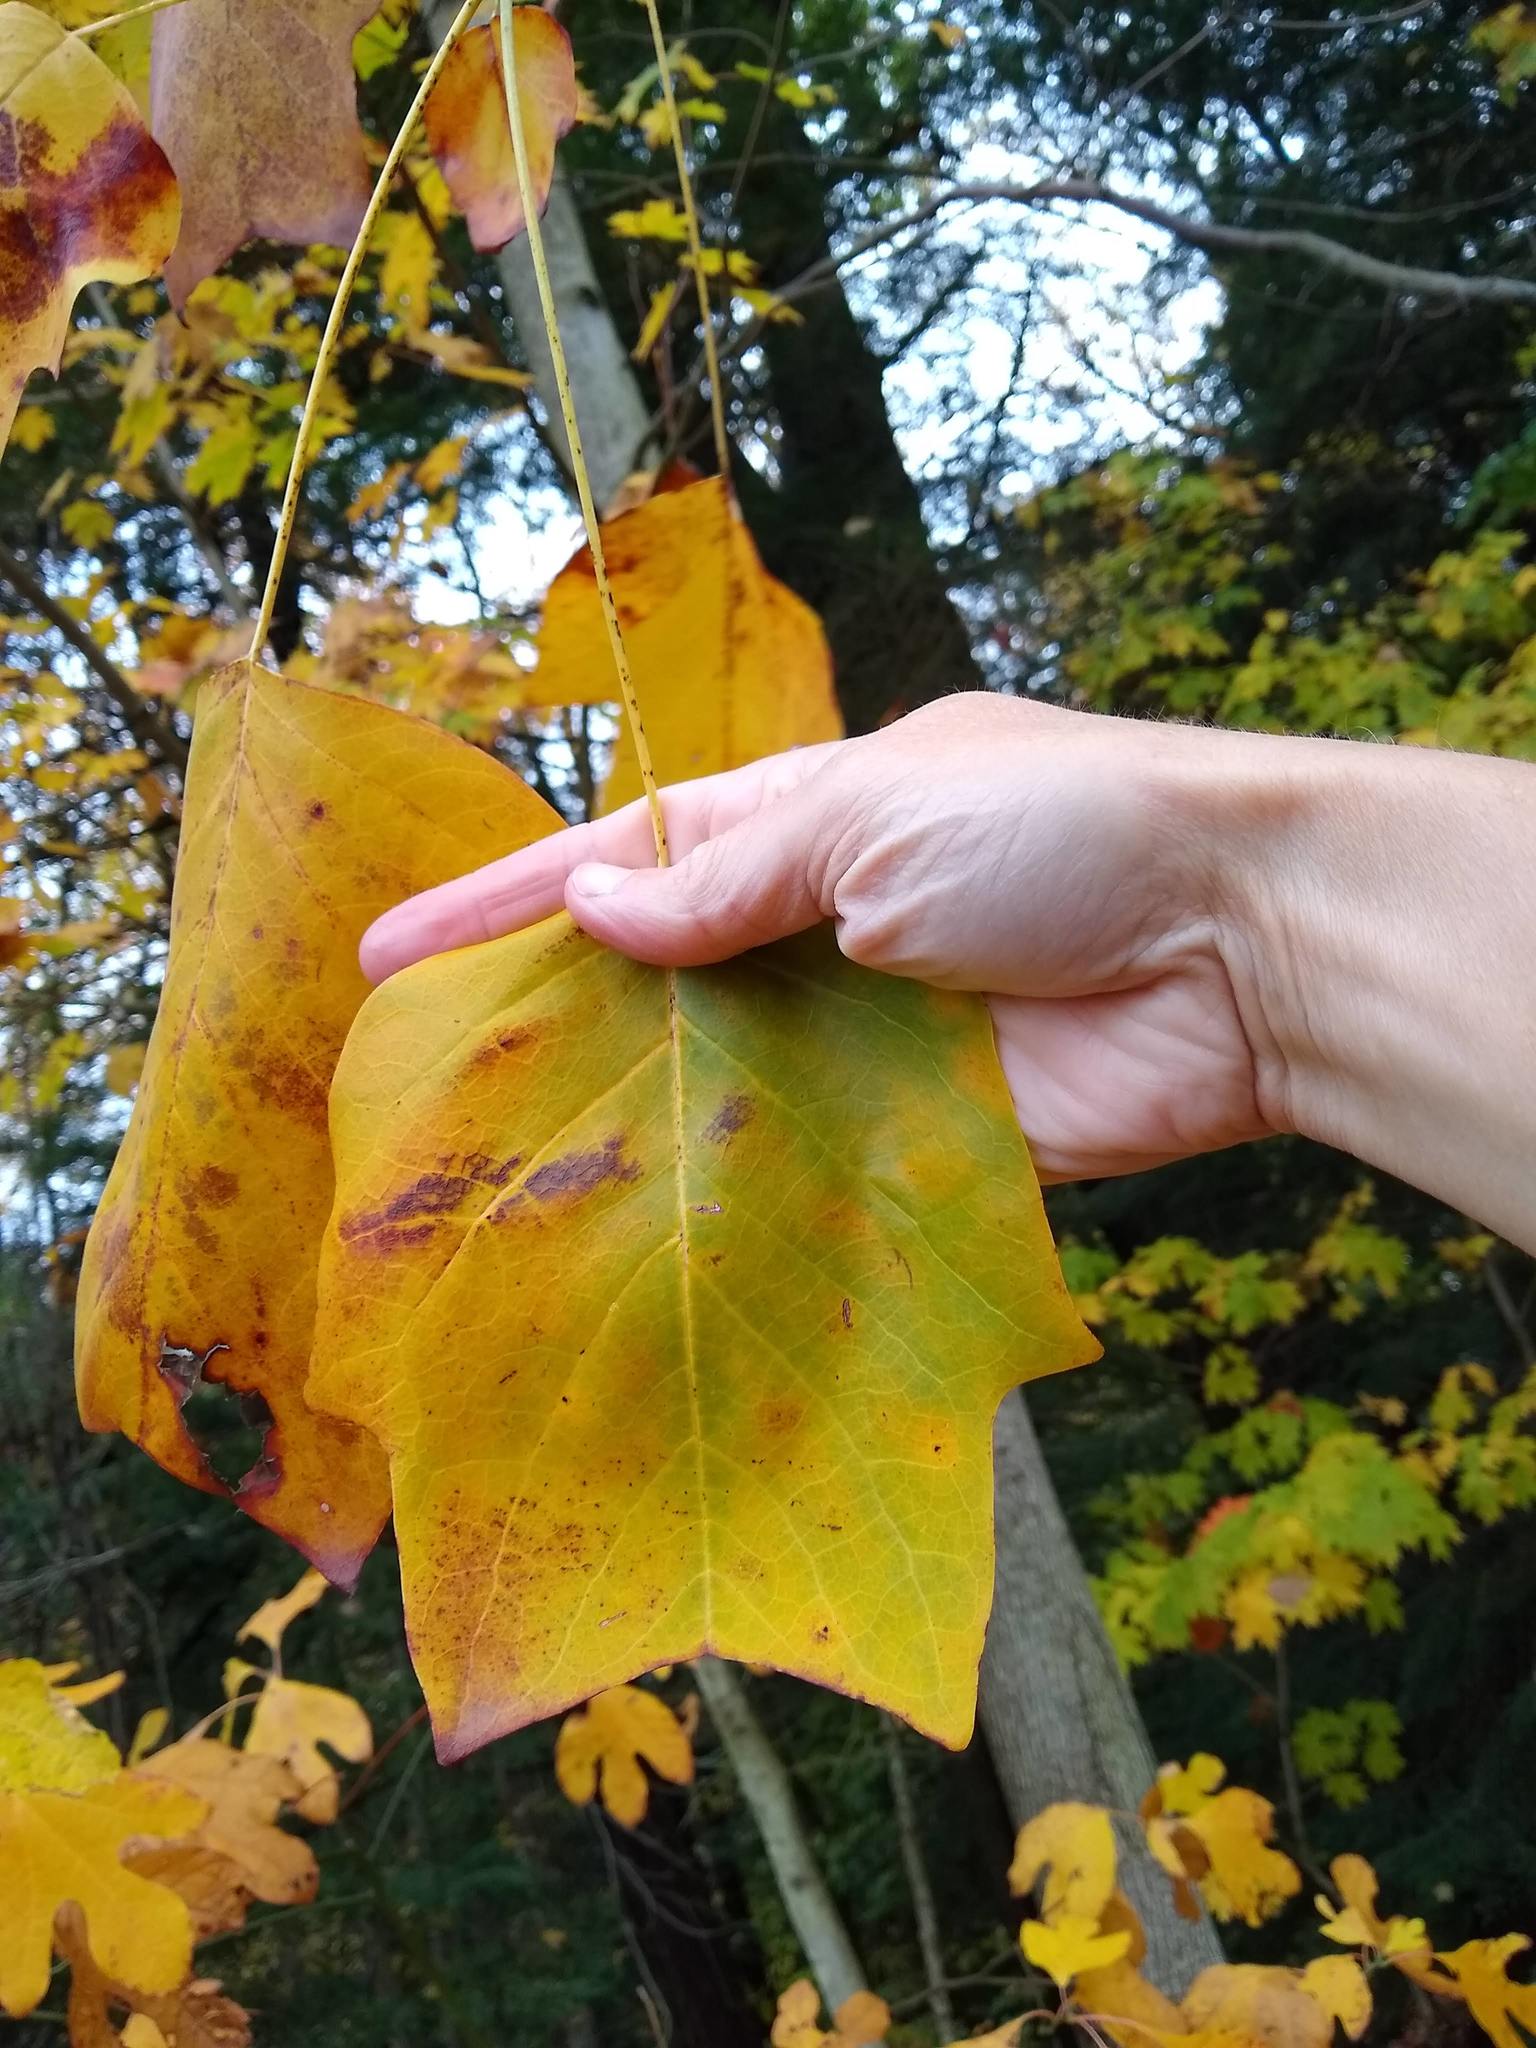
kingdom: Plantae
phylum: Tracheophyta
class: Magnoliopsida
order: Magnoliales
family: Magnoliaceae
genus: Liriodendron
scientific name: Liriodendron tulipifera
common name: Tulip tree
